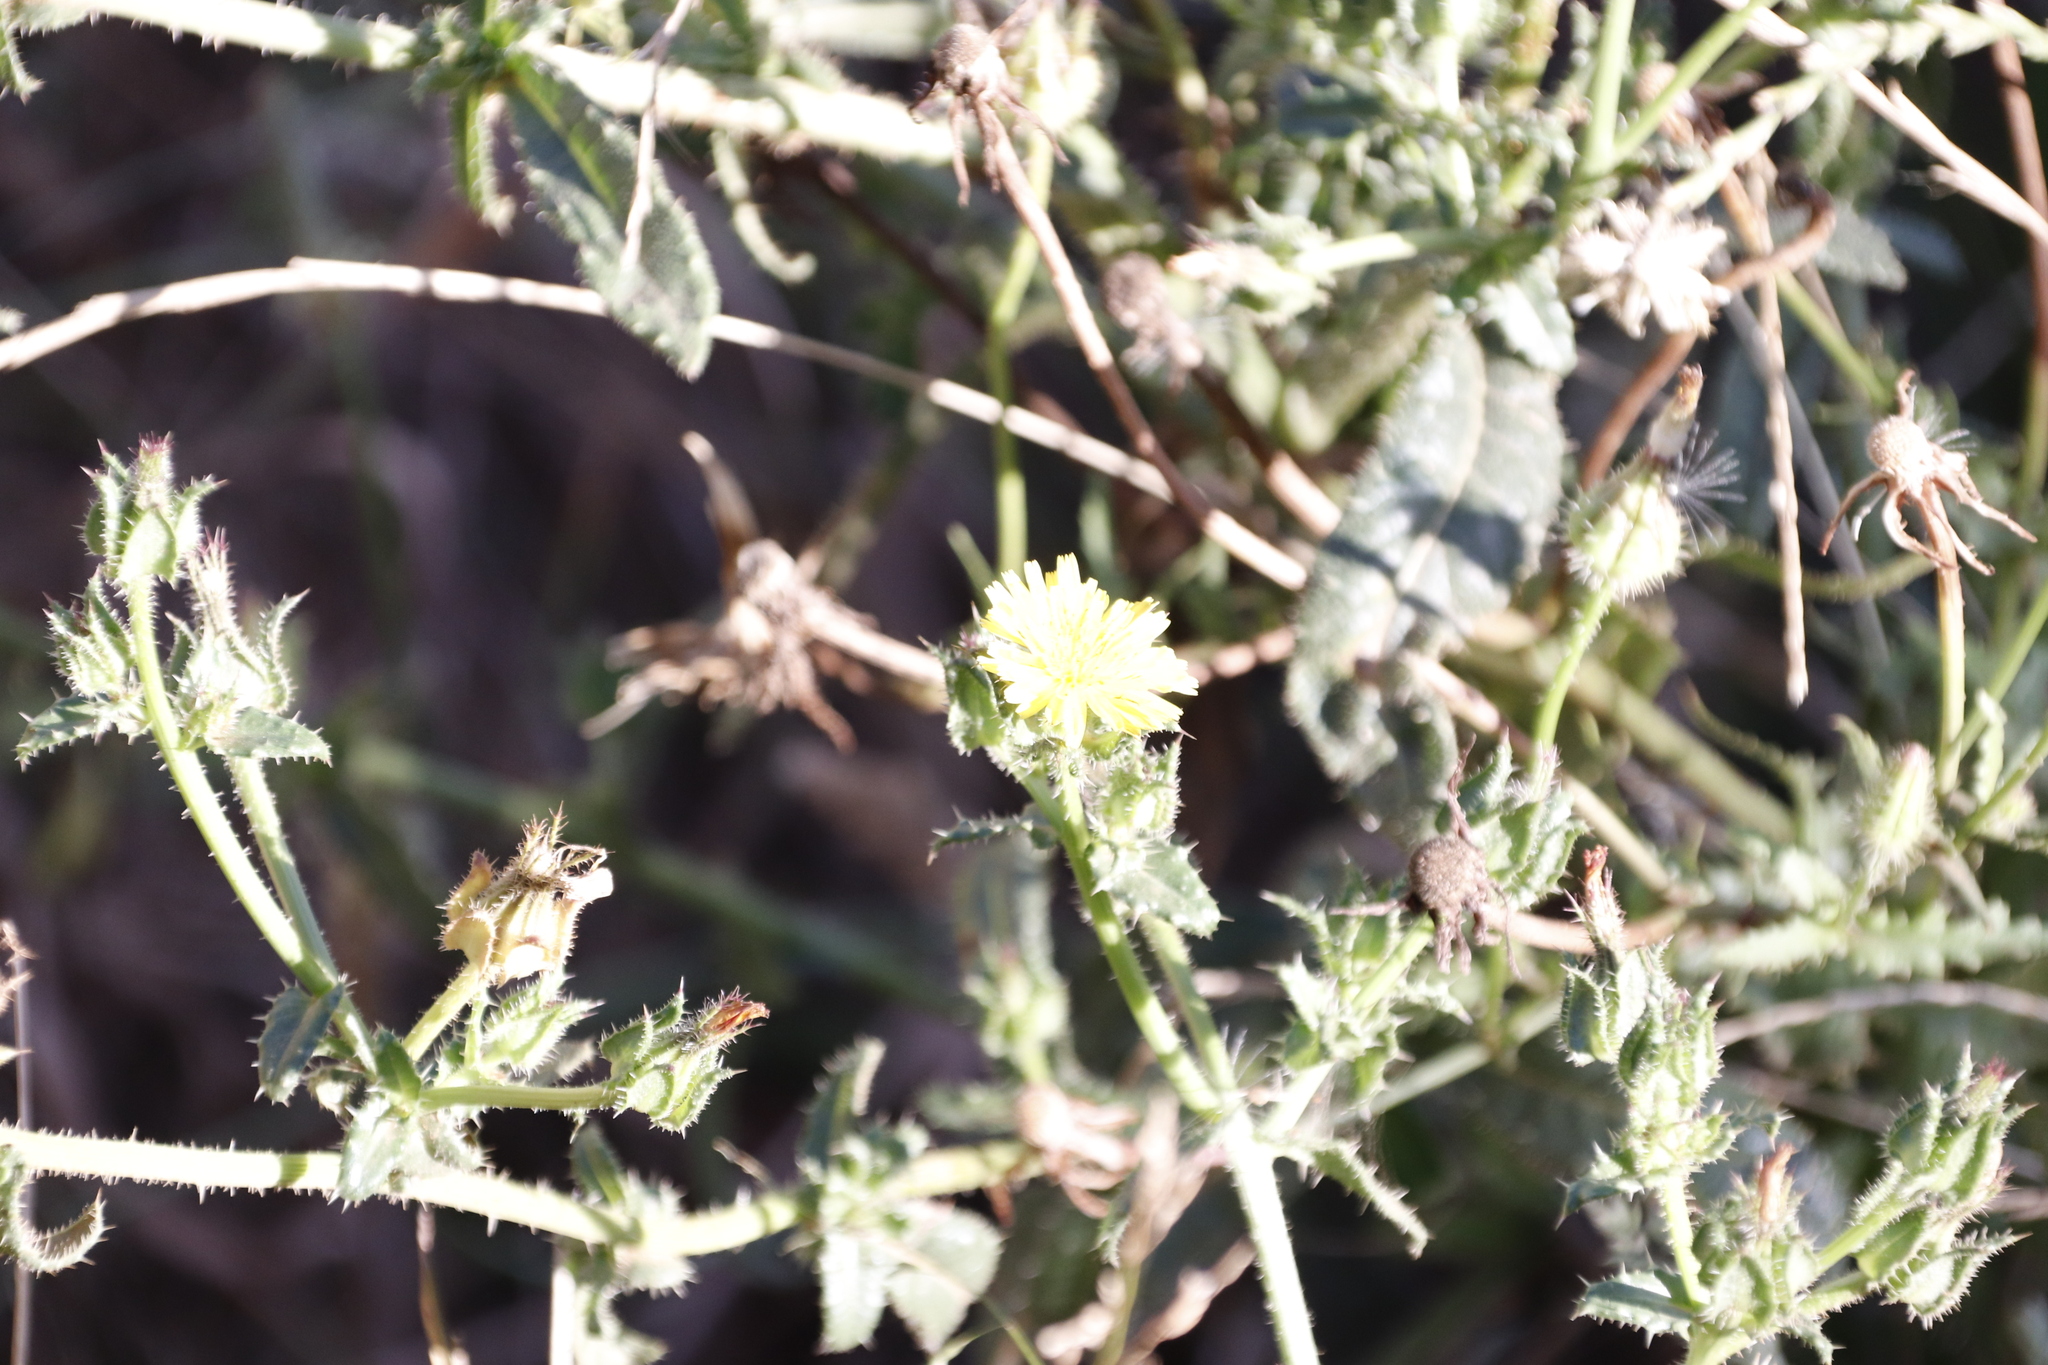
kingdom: Plantae
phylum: Tracheophyta
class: Magnoliopsida
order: Asterales
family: Asteraceae
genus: Helminthotheca
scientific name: Helminthotheca echioides
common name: Ox-tongue
